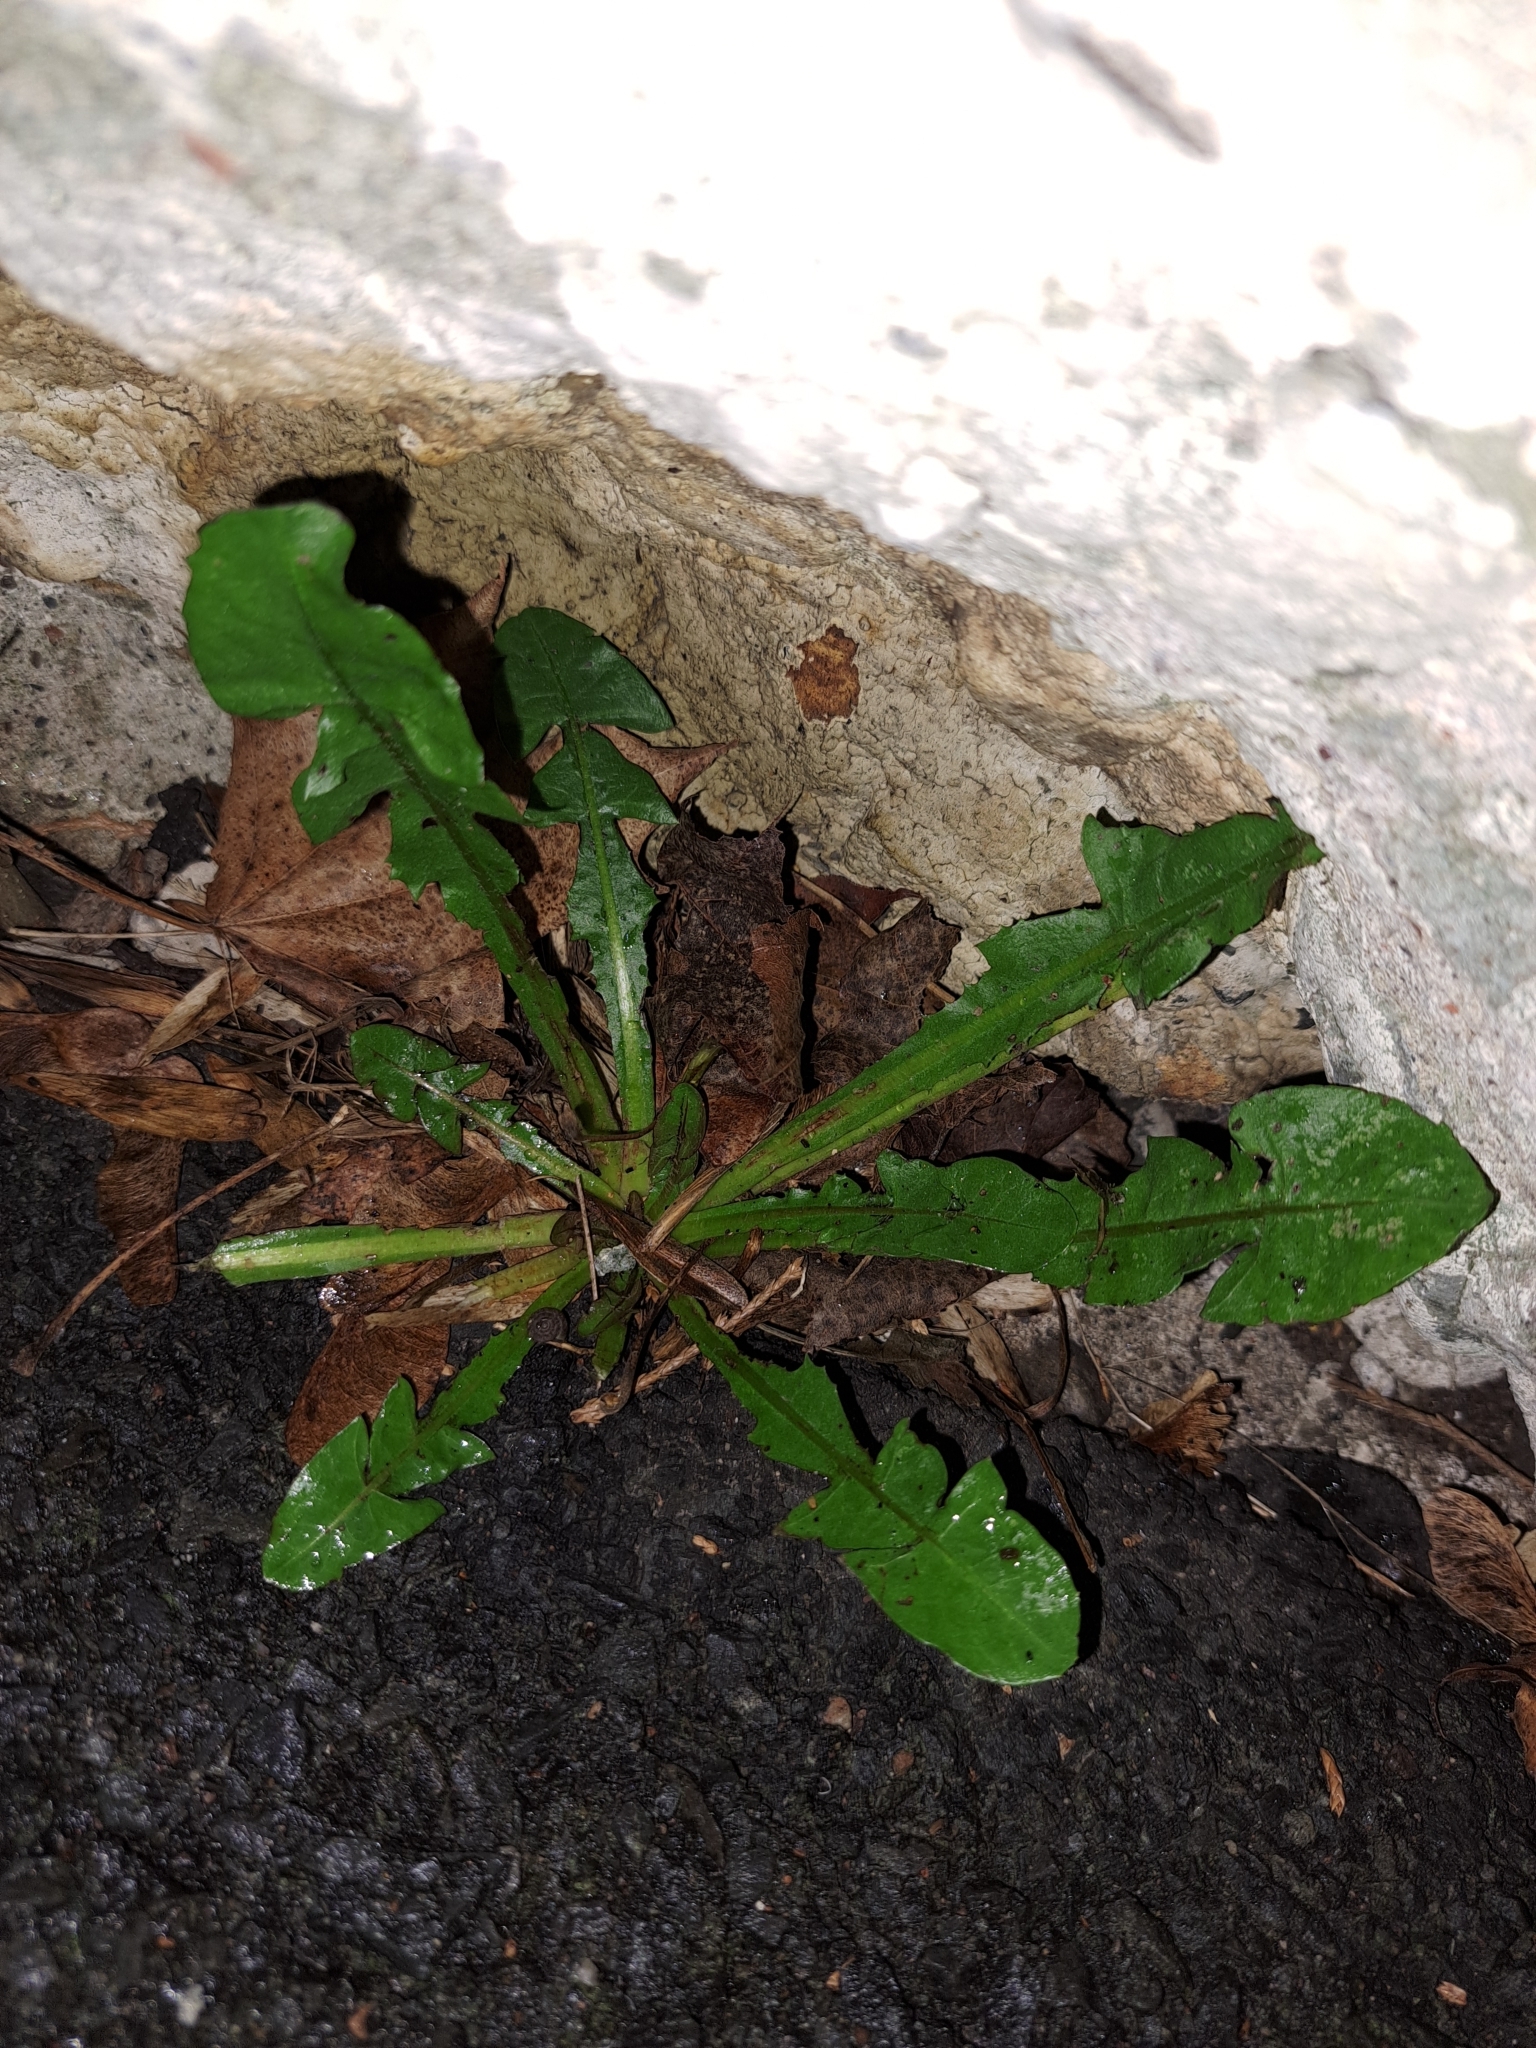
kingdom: Plantae
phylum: Tracheophyta
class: Magnoliopsida
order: Asterales
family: Asteraceae
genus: Taraxacum
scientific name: Taraxacum officinale
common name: Common dandelion
